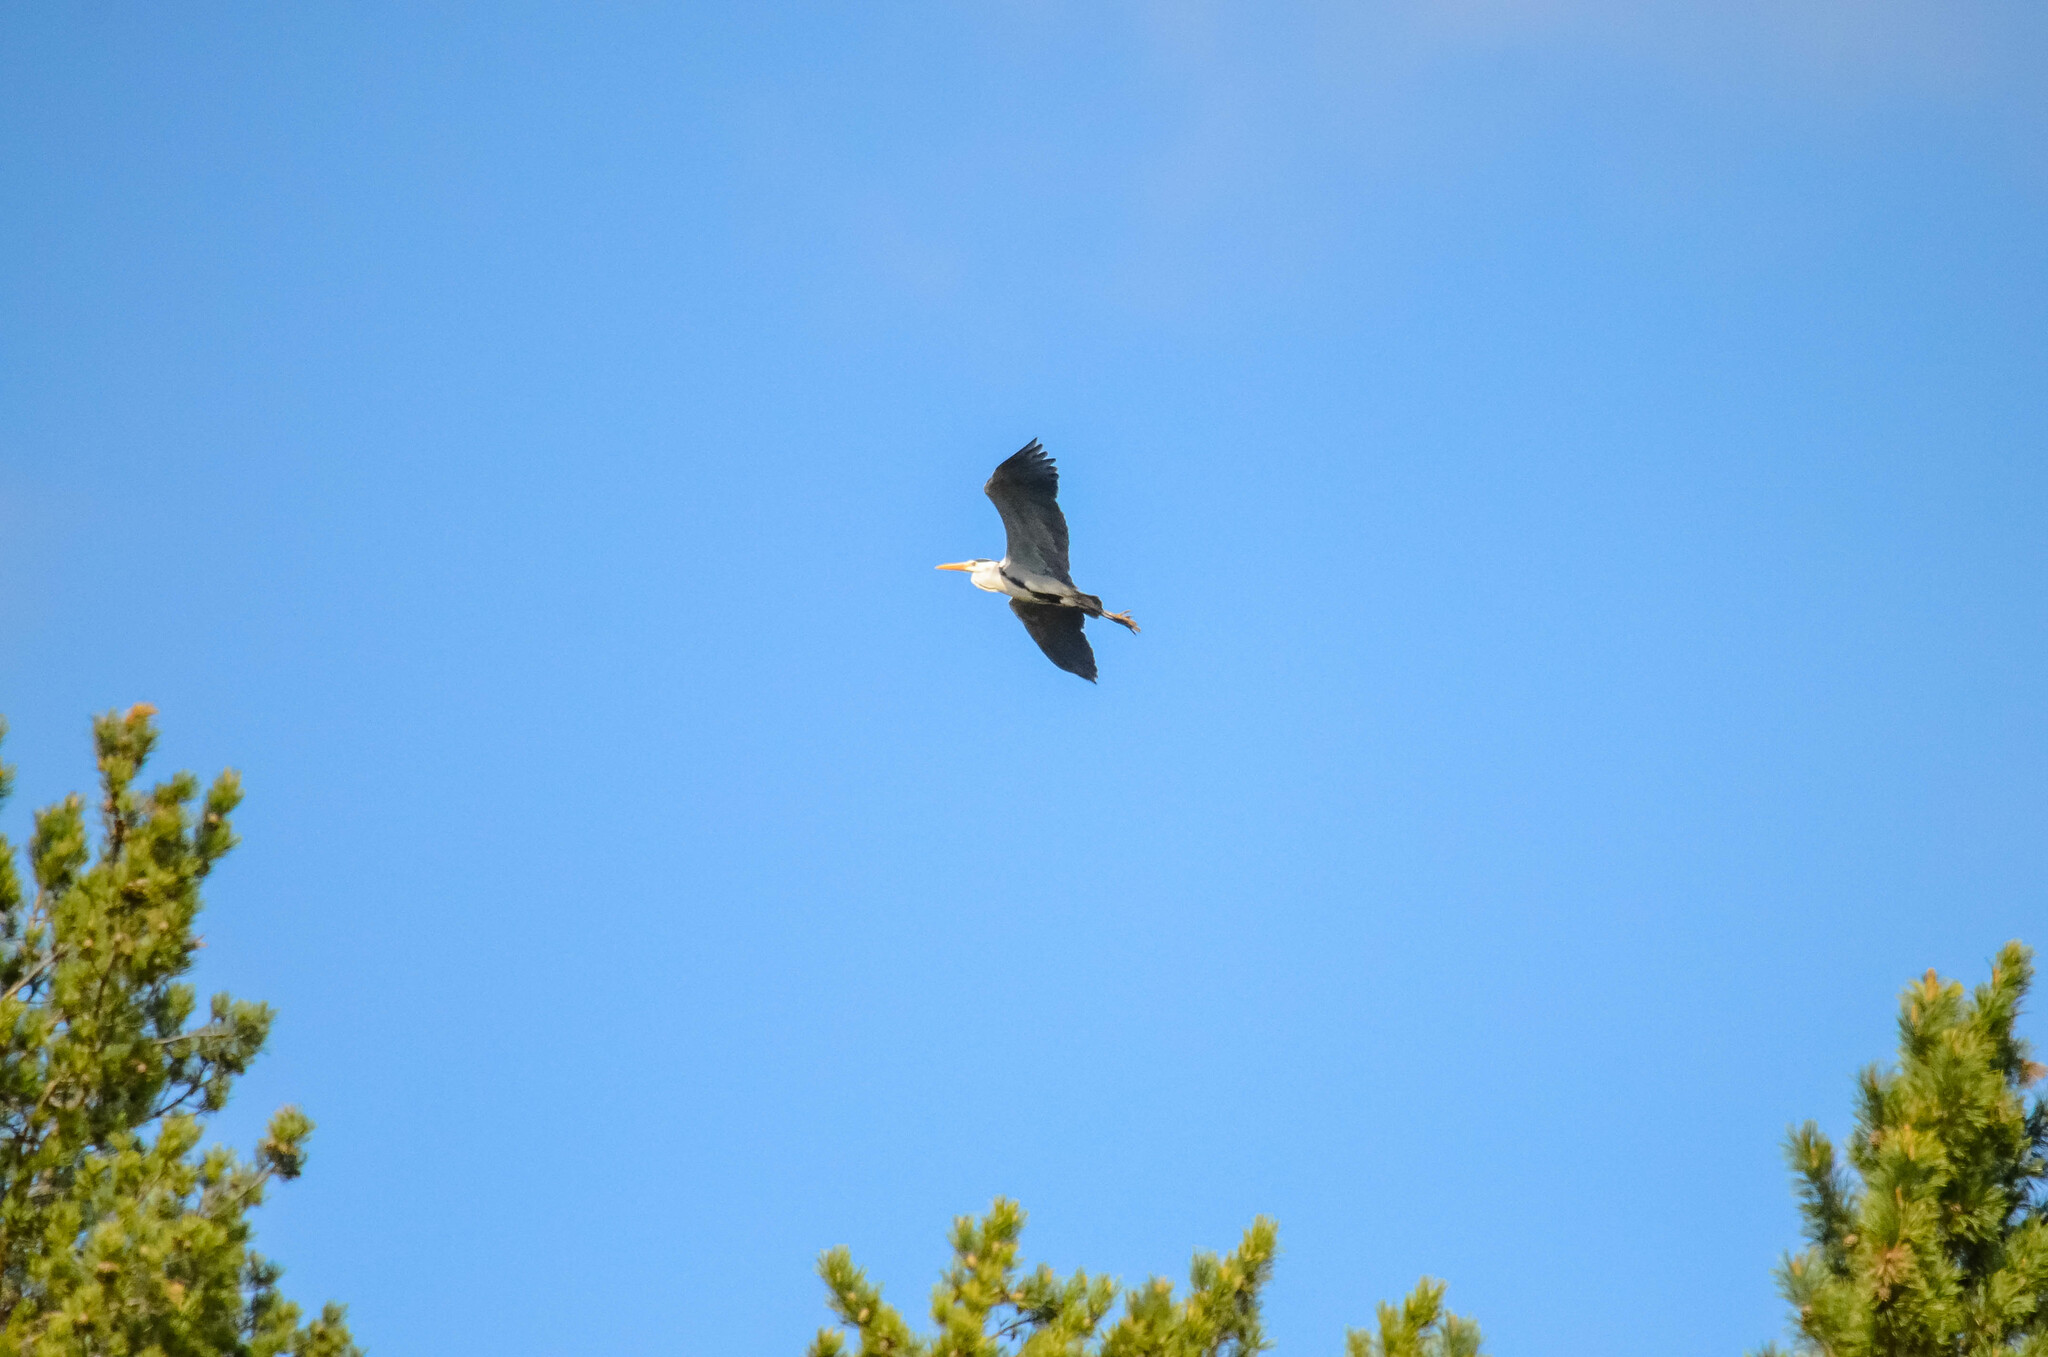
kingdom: Animalia
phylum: Chordata
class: Aves
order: Pelecaniformes
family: Ardeidae
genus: Ardea
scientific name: Ardea cinerea
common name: Grey heron
